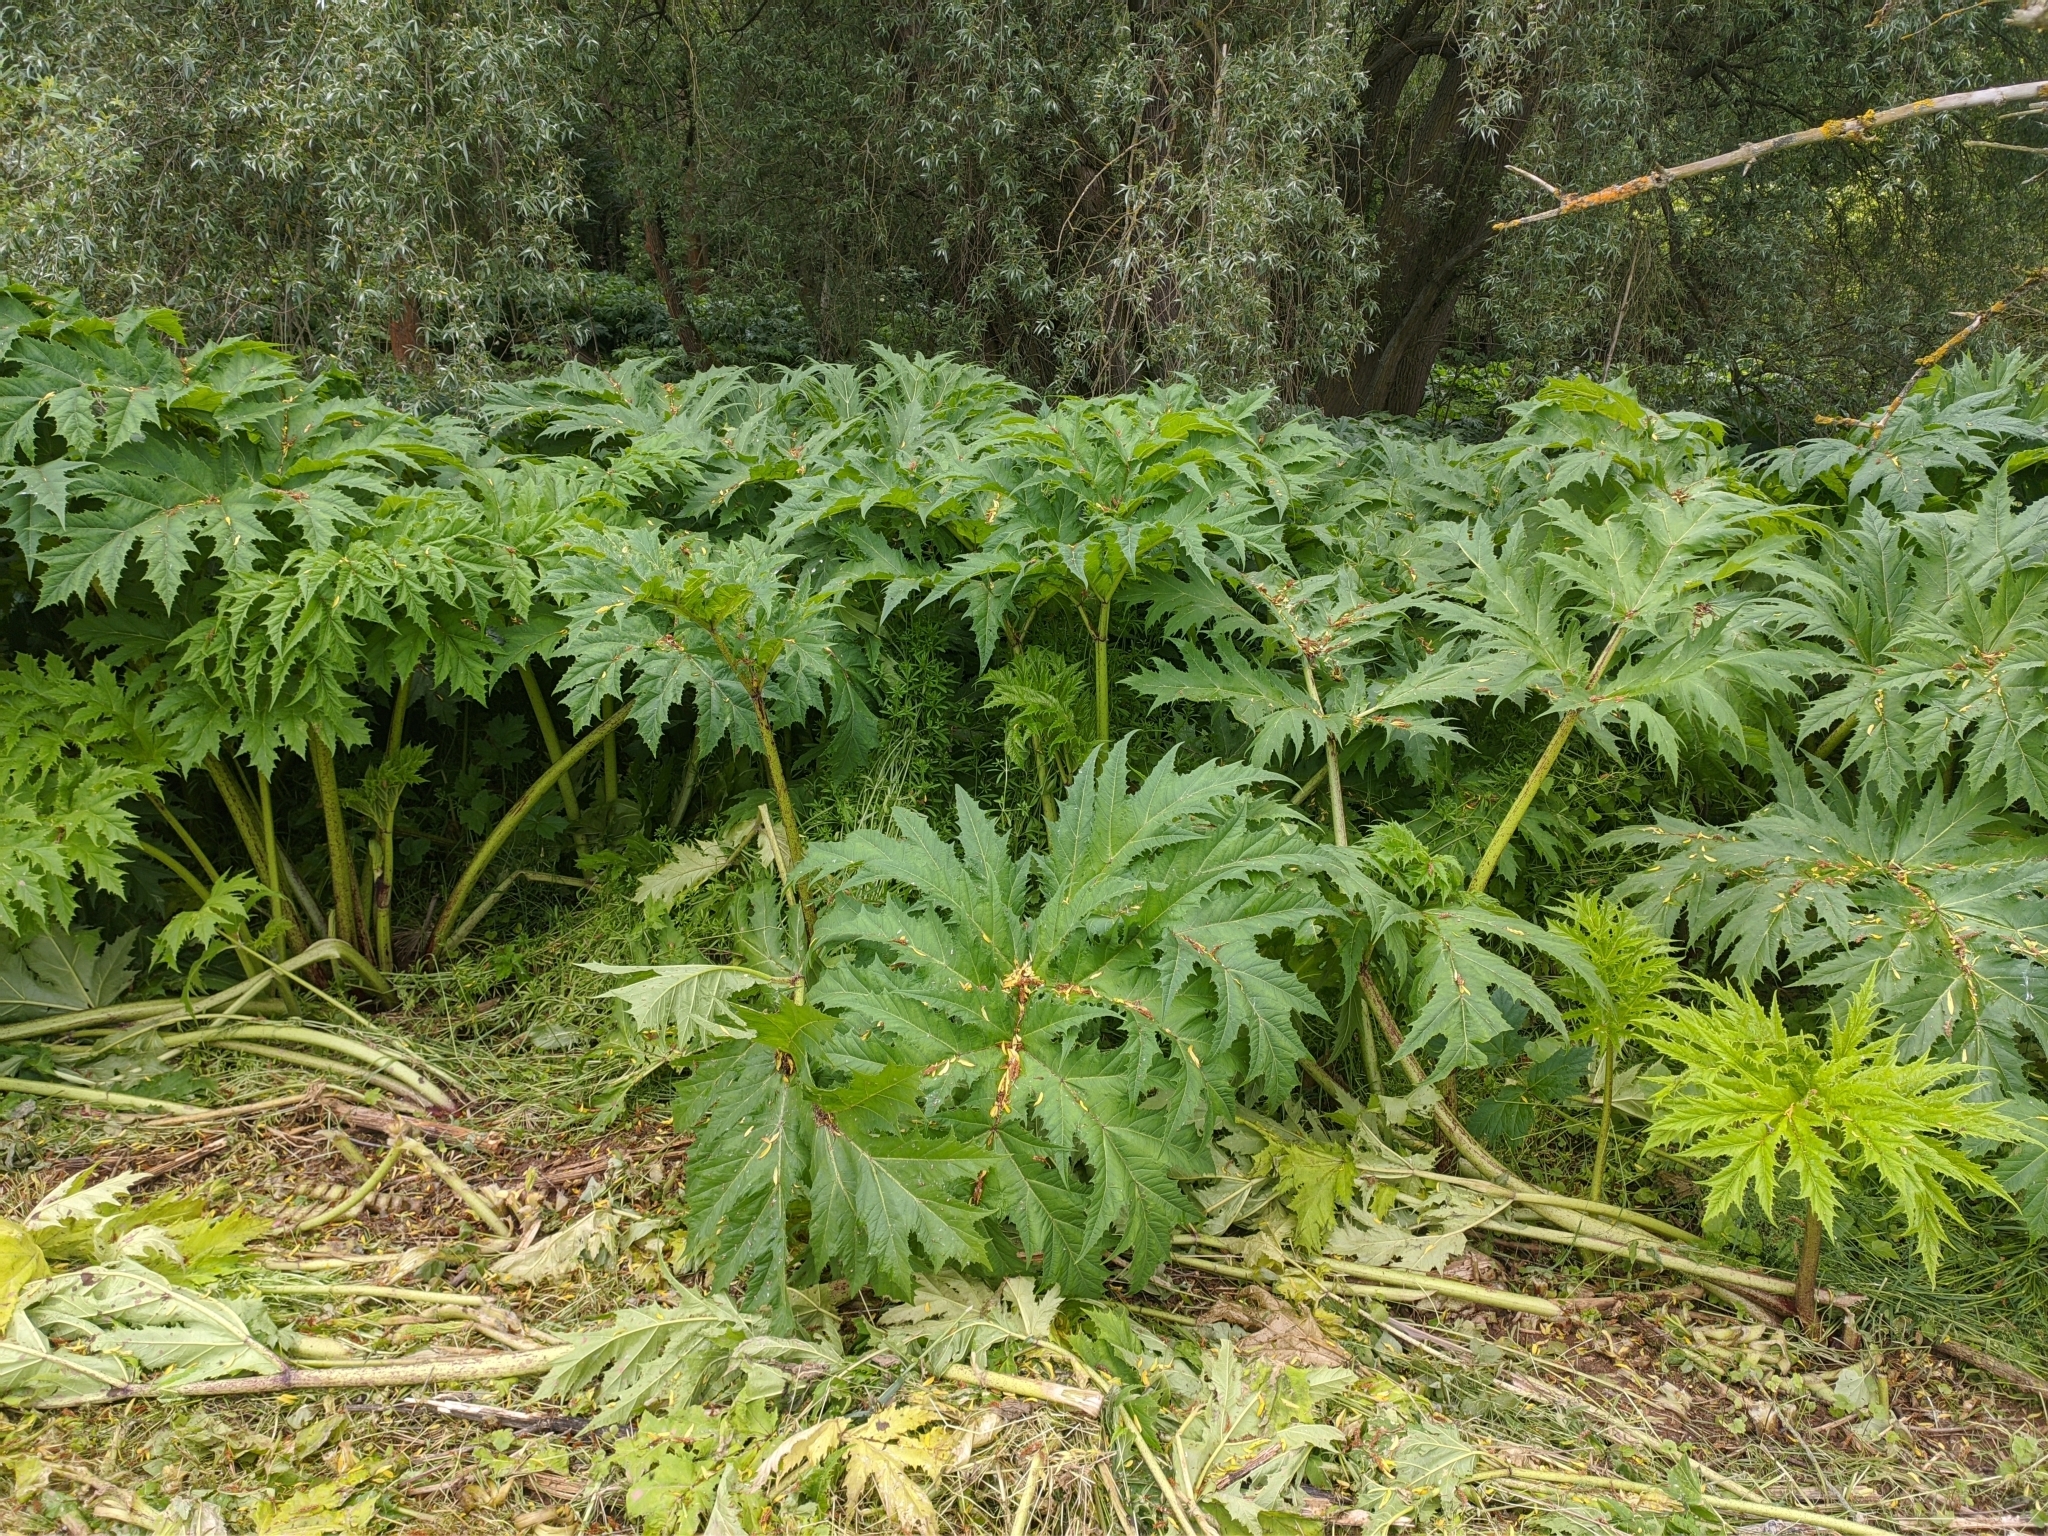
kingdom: Plantae
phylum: Tracheophyta
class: Magnoliopsida
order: Apiales
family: Apiaceae
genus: Heracleum
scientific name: Heracleum mantegazzianum
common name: Giant hogweed
